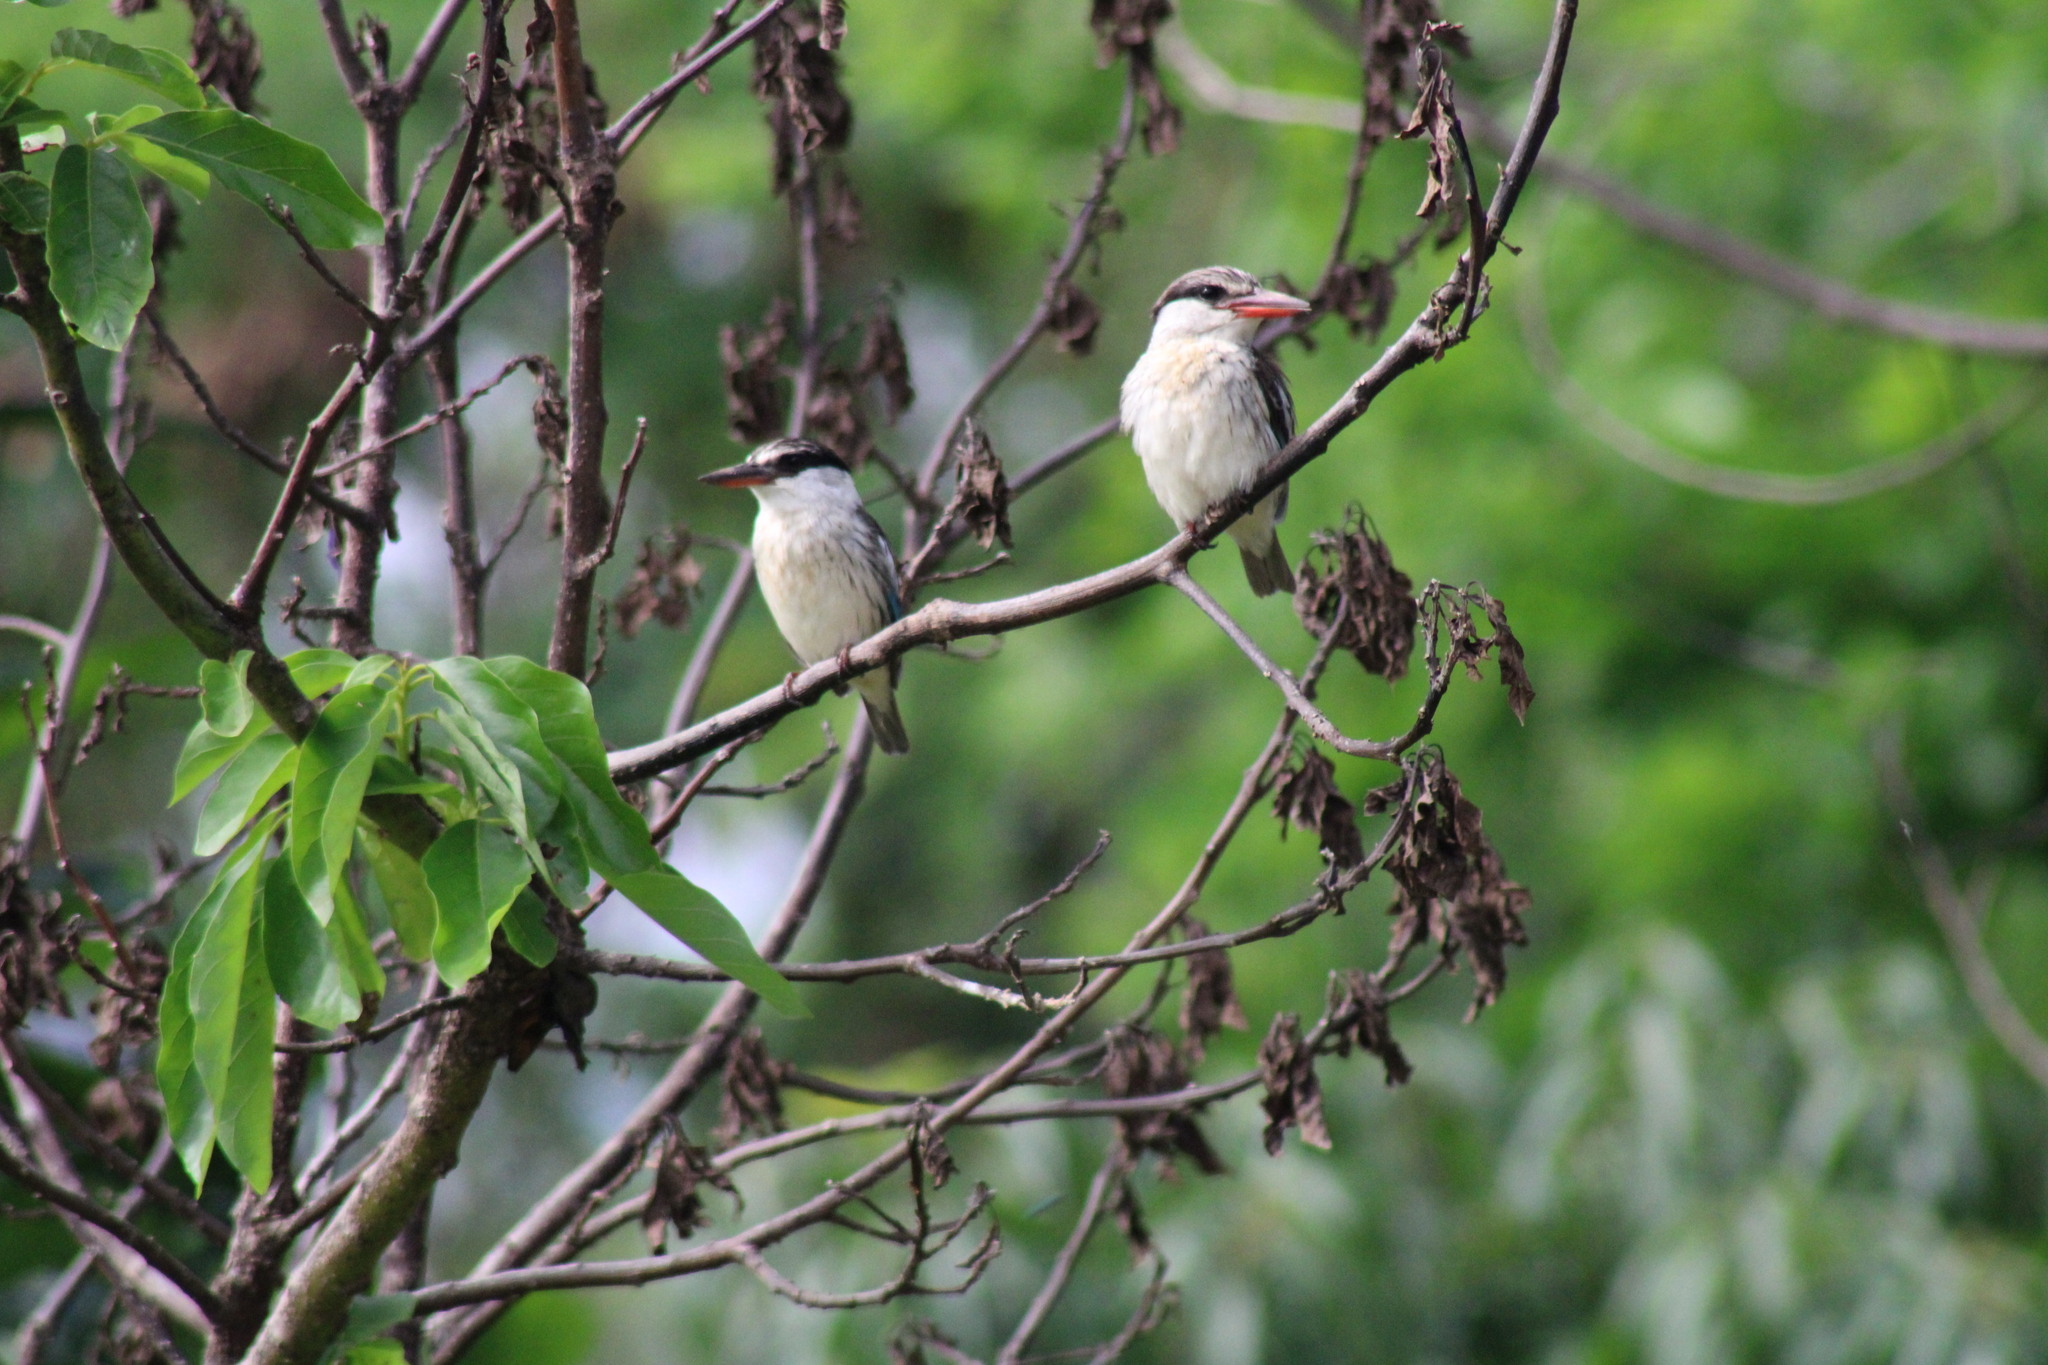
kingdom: Animalia
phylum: Chordata
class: Aves
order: Coraciiformes
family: Alcedinidae
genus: Halcyon
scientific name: Halcyon chelicuti
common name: Striped kingfisher
